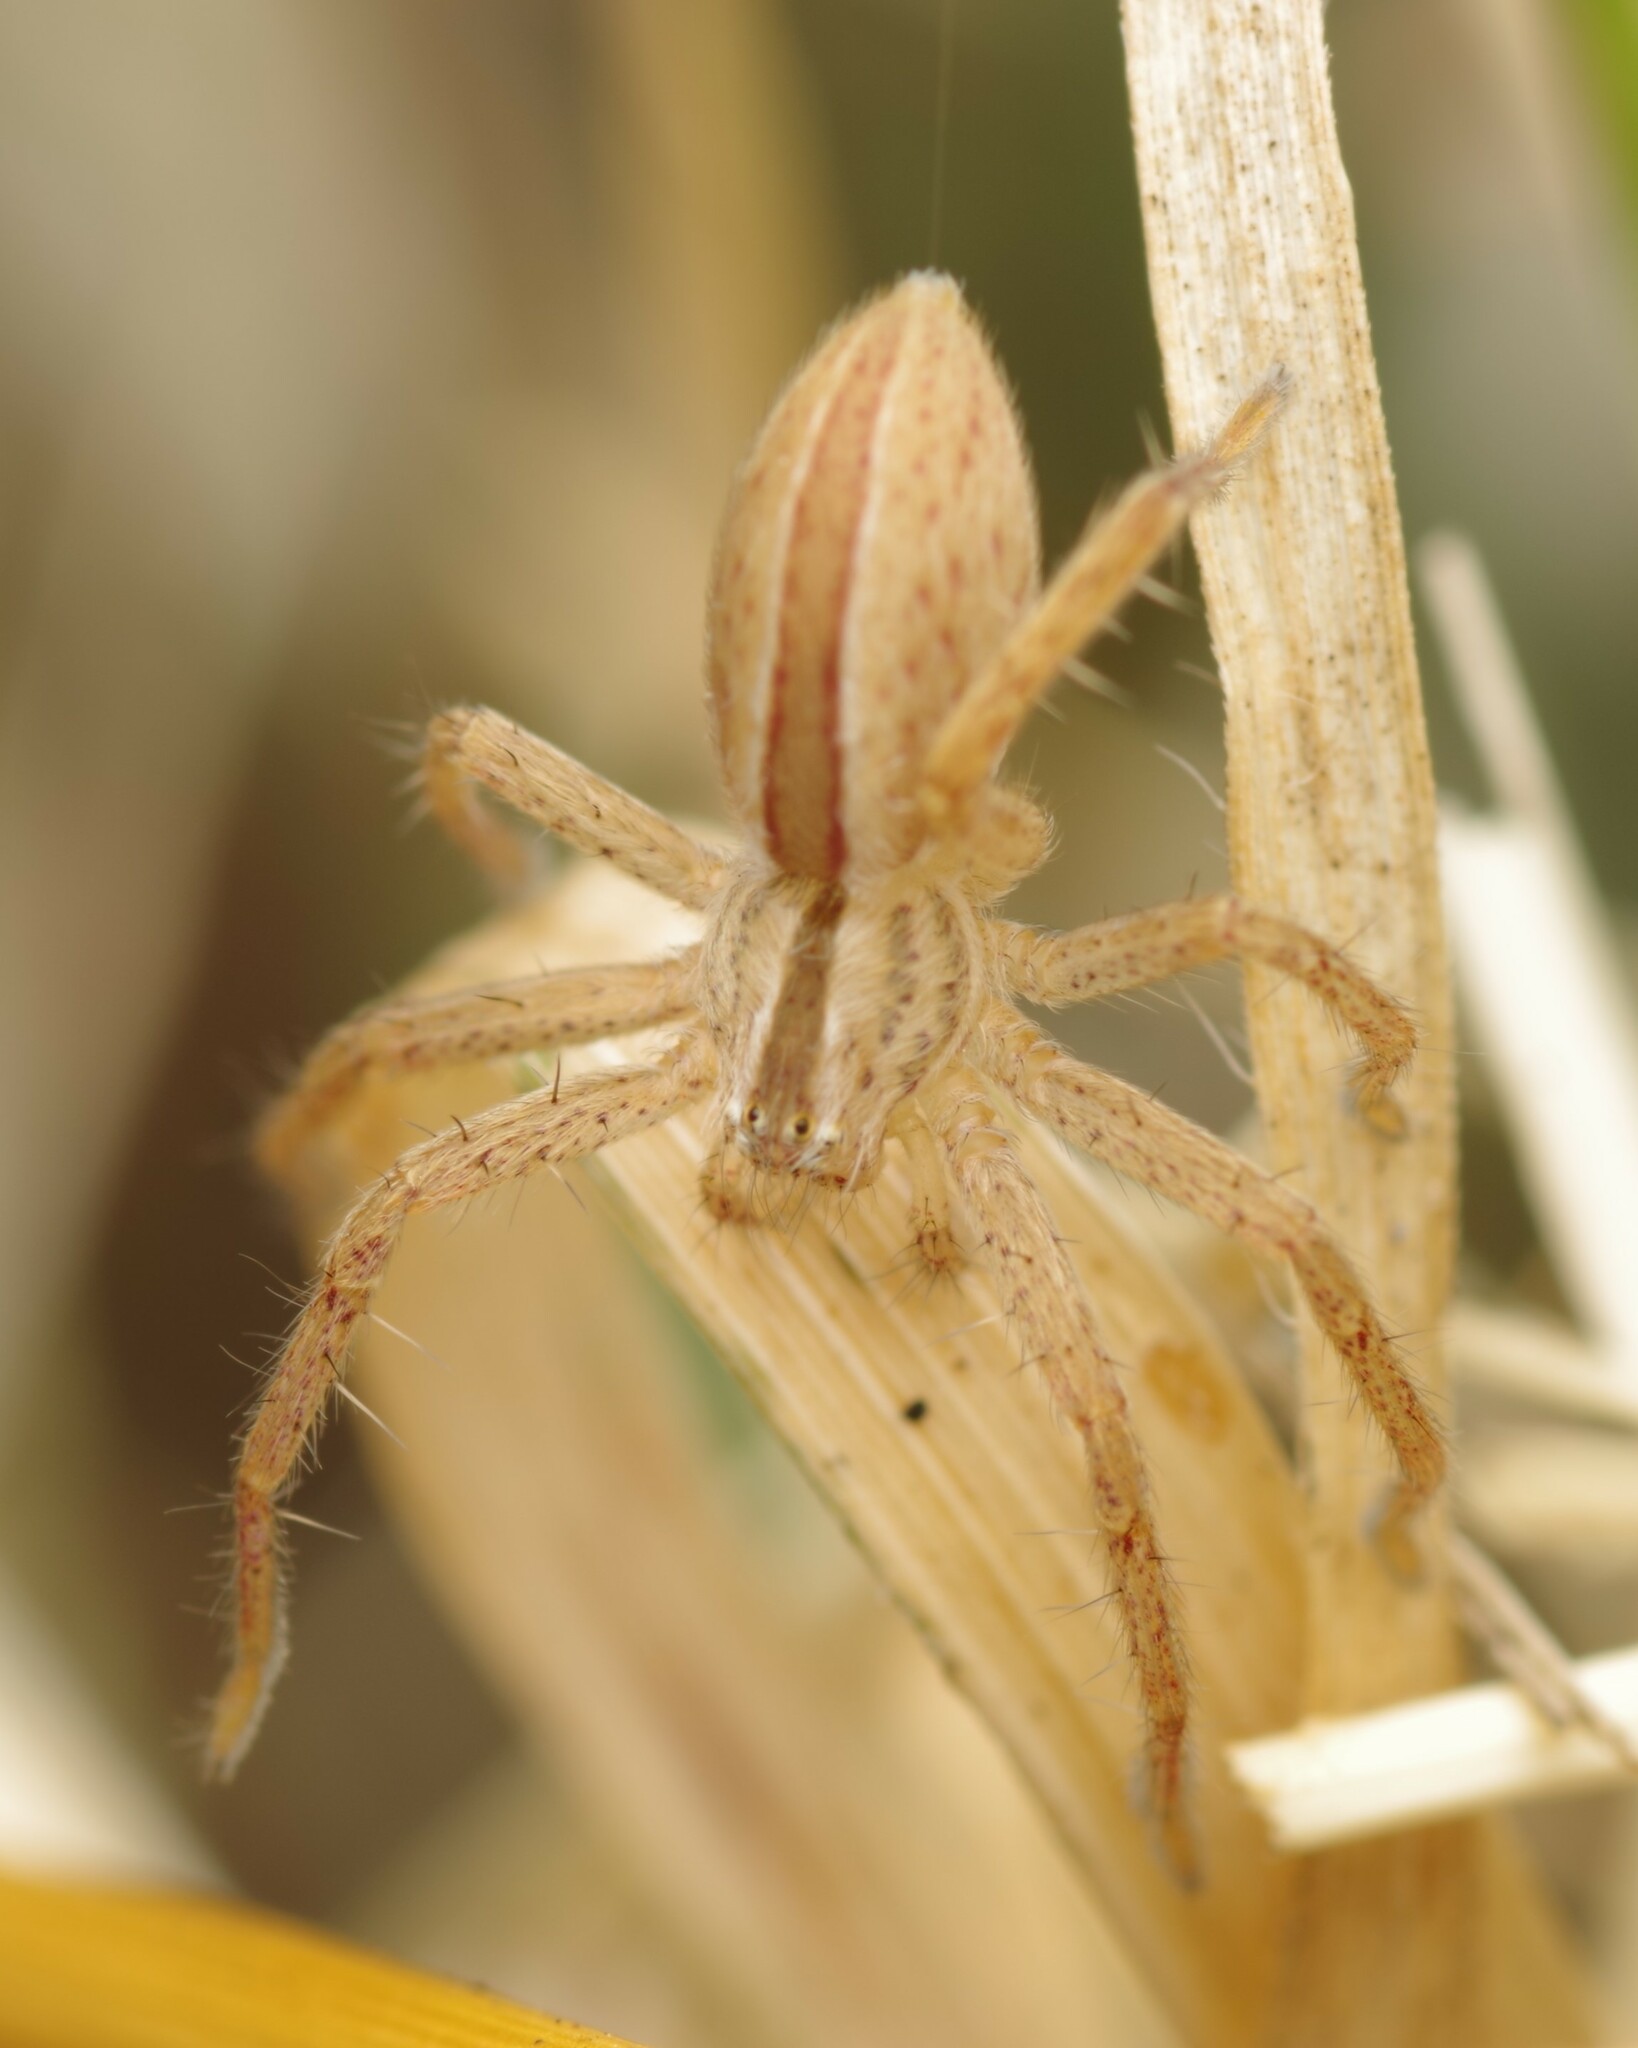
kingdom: Animalia
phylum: Arthropoda
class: Arachnida
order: Araneae
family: Sparassidae
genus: Micrommata
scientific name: Micrommata
